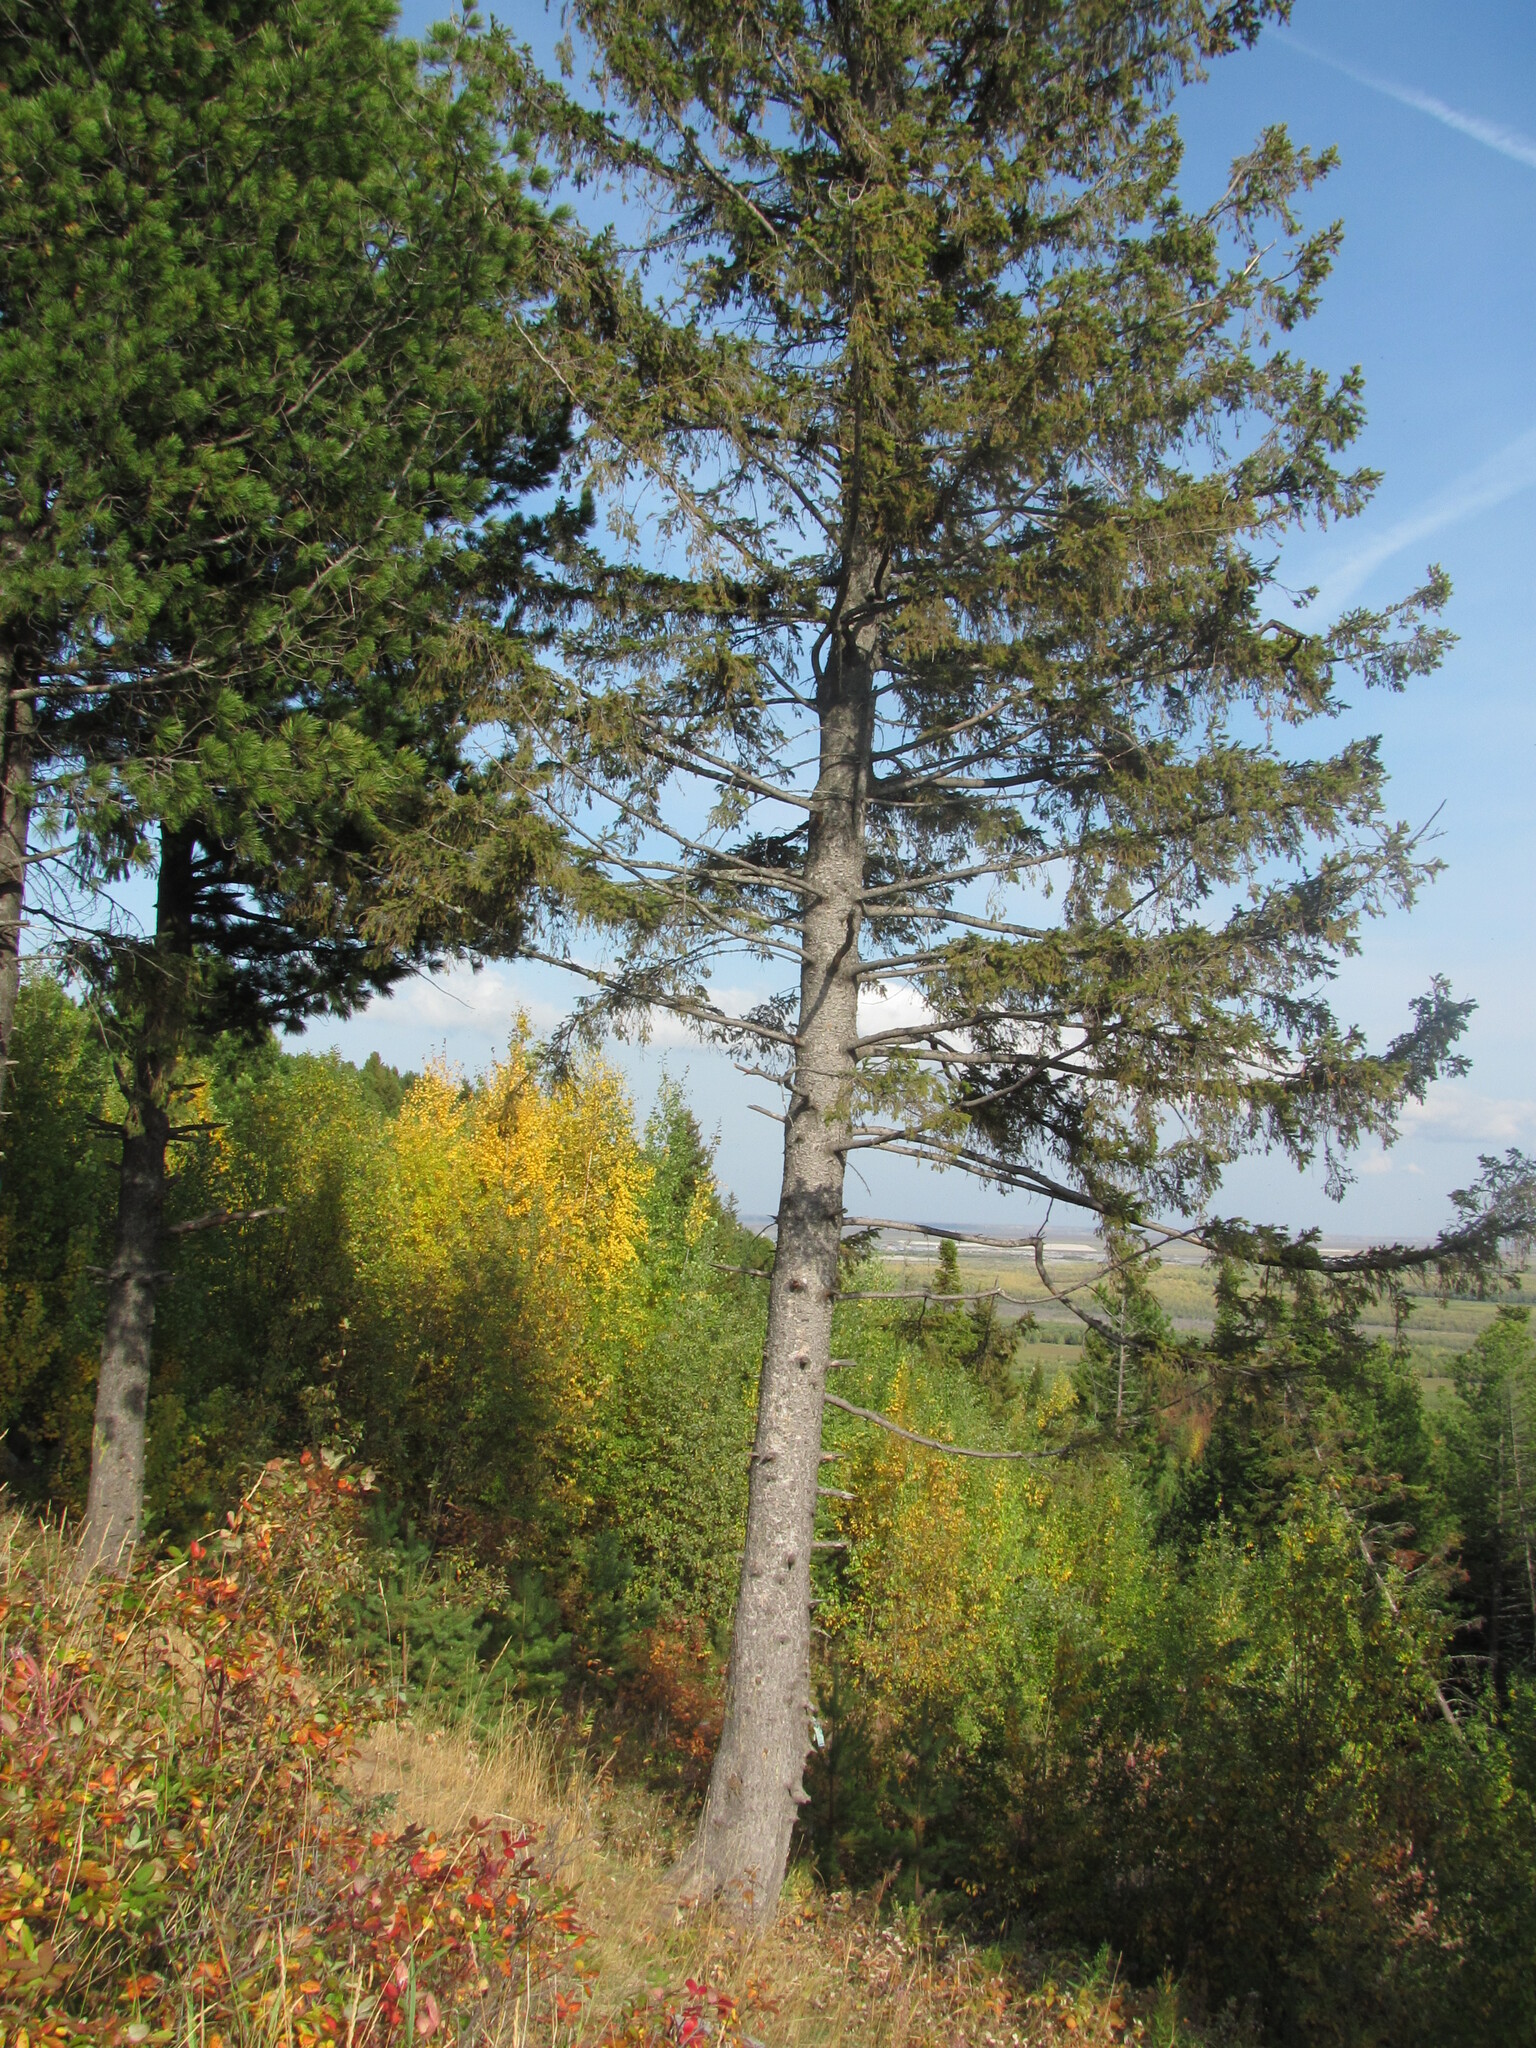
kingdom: Plantae
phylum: Tracheophyta
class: Pinopsida
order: Pinales
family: Pinaceae
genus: Picea
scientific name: Picea obovata
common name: Siberian spruce
